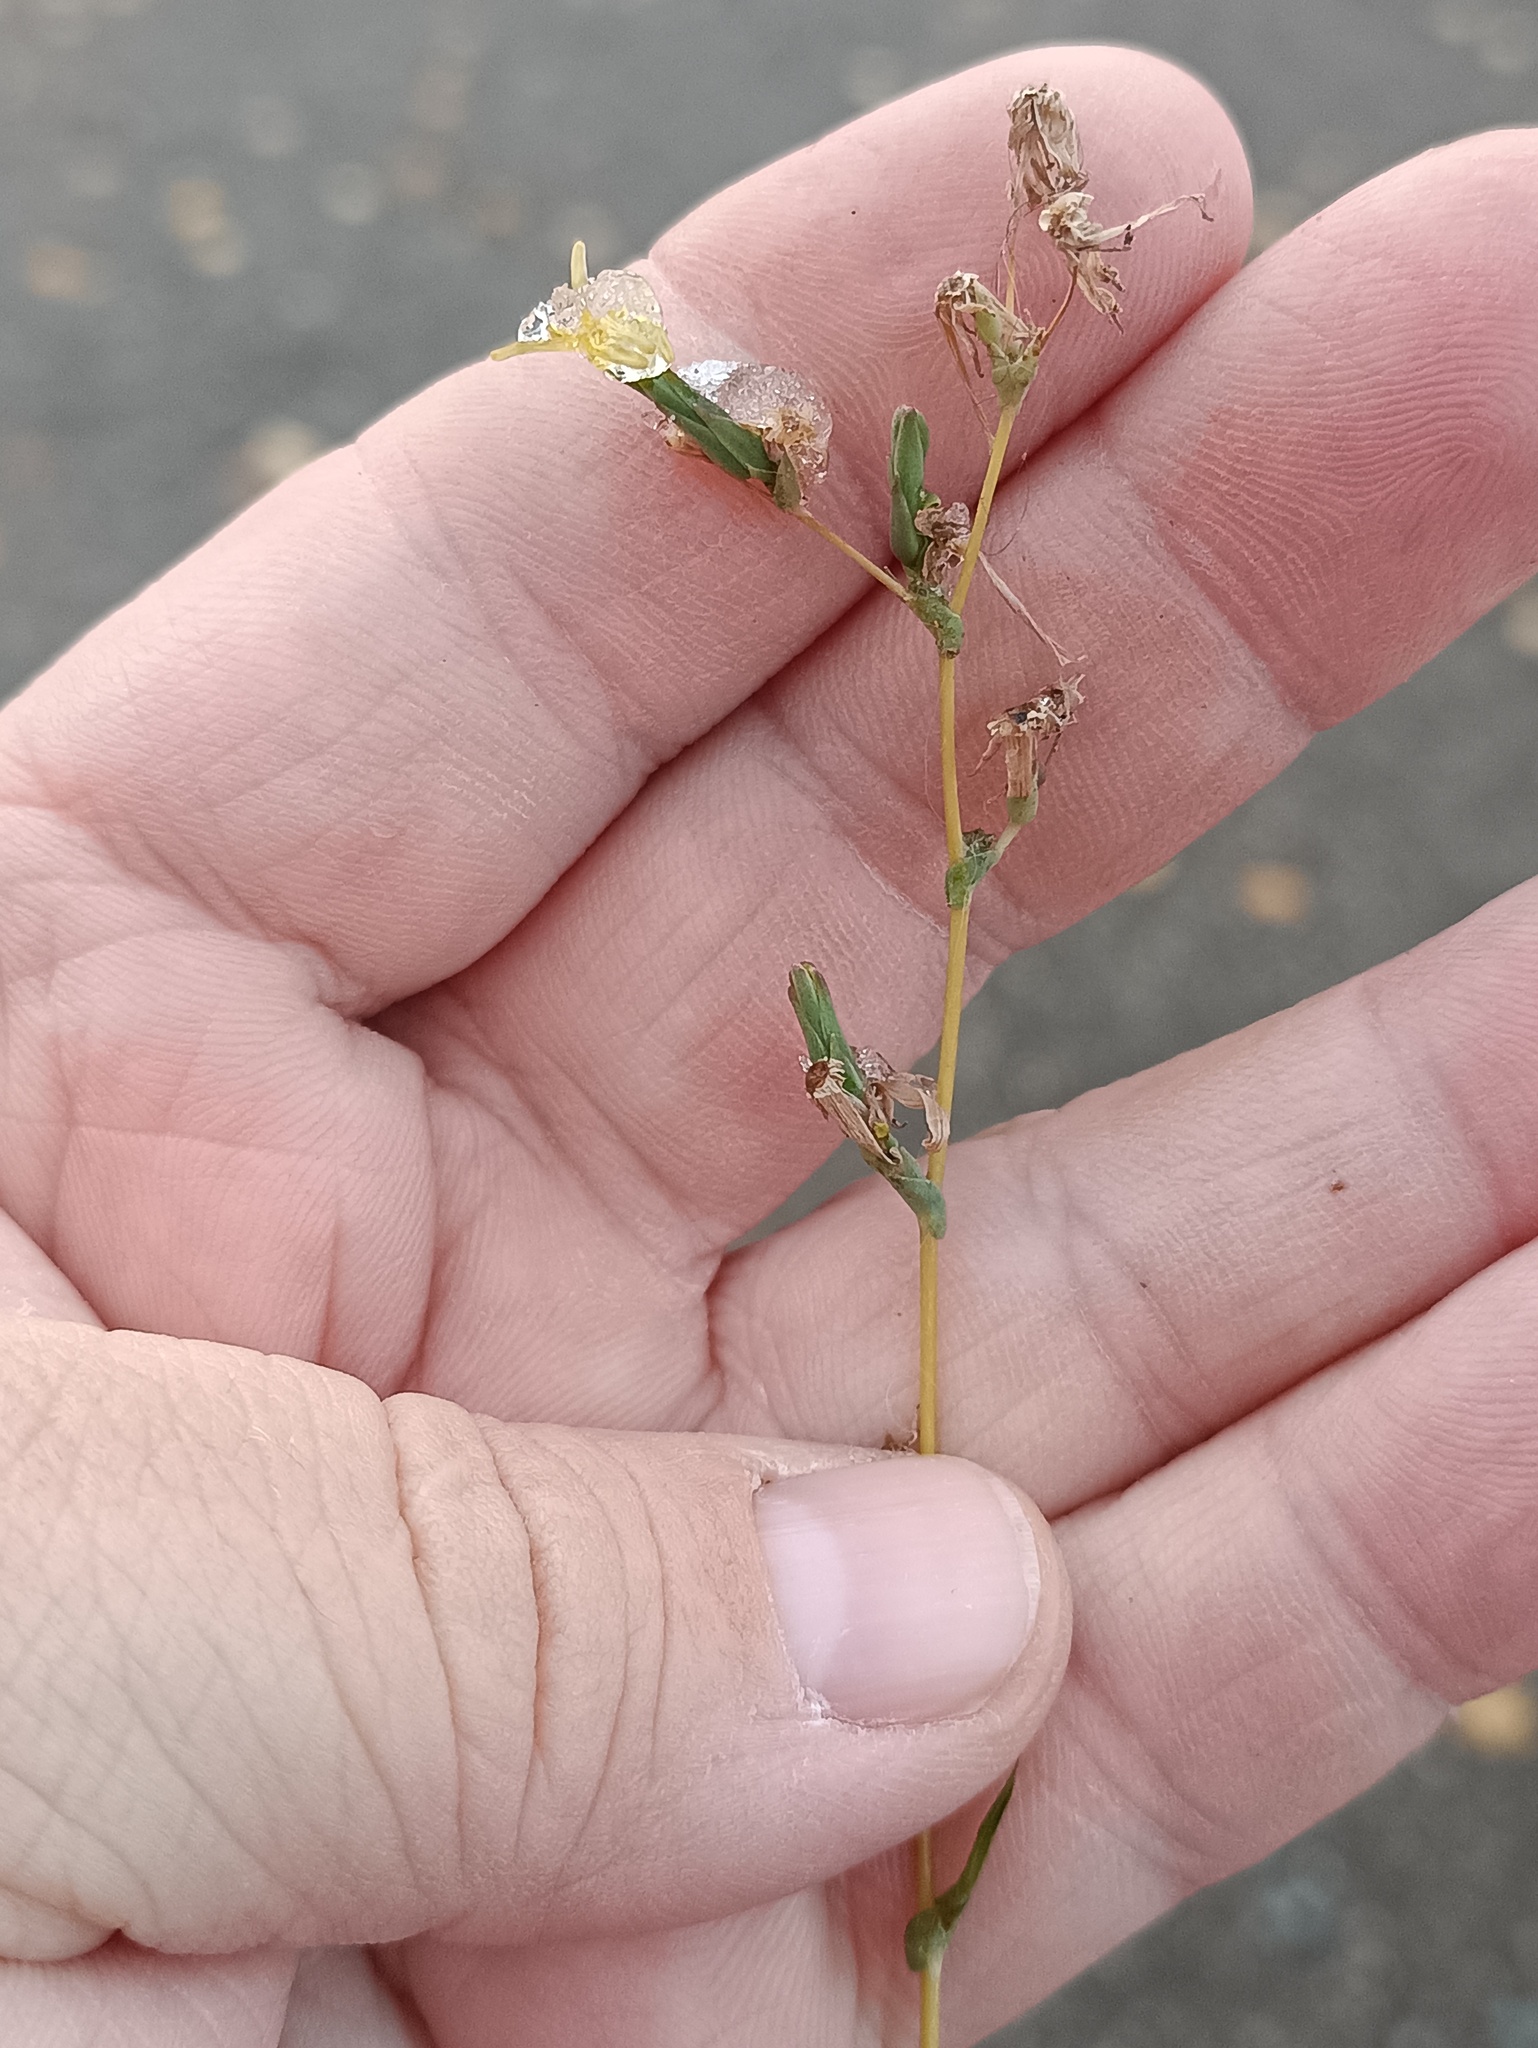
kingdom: Plantae
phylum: Tracheophyta
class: Magnoliopsida
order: Asterales
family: Asteraceae
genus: Lactuca
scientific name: Lactuca serriola
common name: Prickly lettuce
